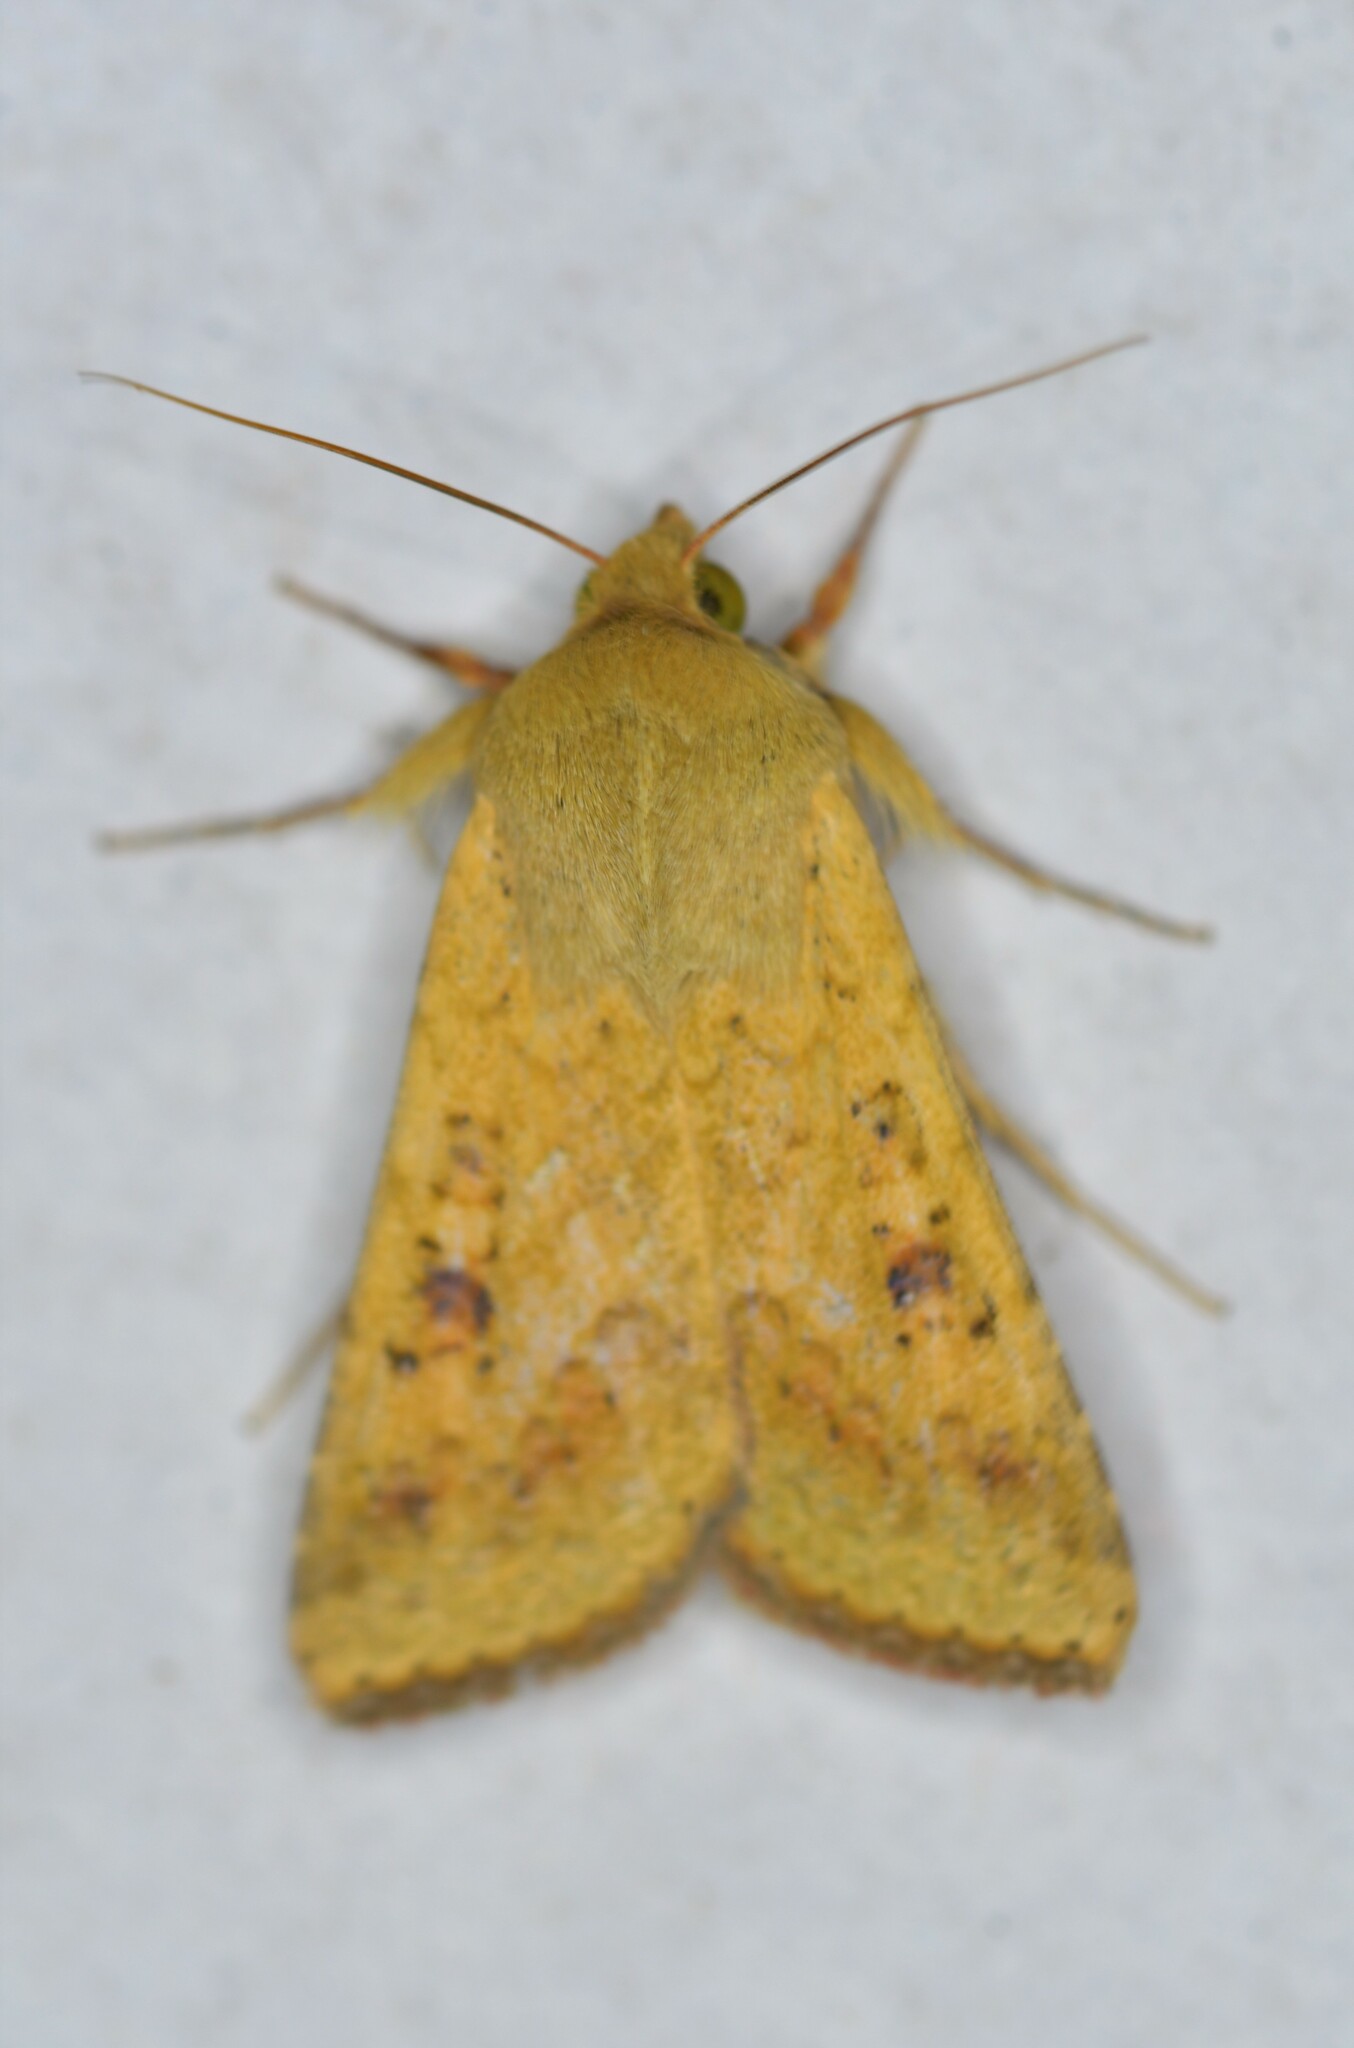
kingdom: Animalia
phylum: Arthropoda
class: Insecta
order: Lepidoptera
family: Noctuidae
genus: Helicoverpa
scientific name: Helicoverpa armigera
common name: Cotton bollworm
